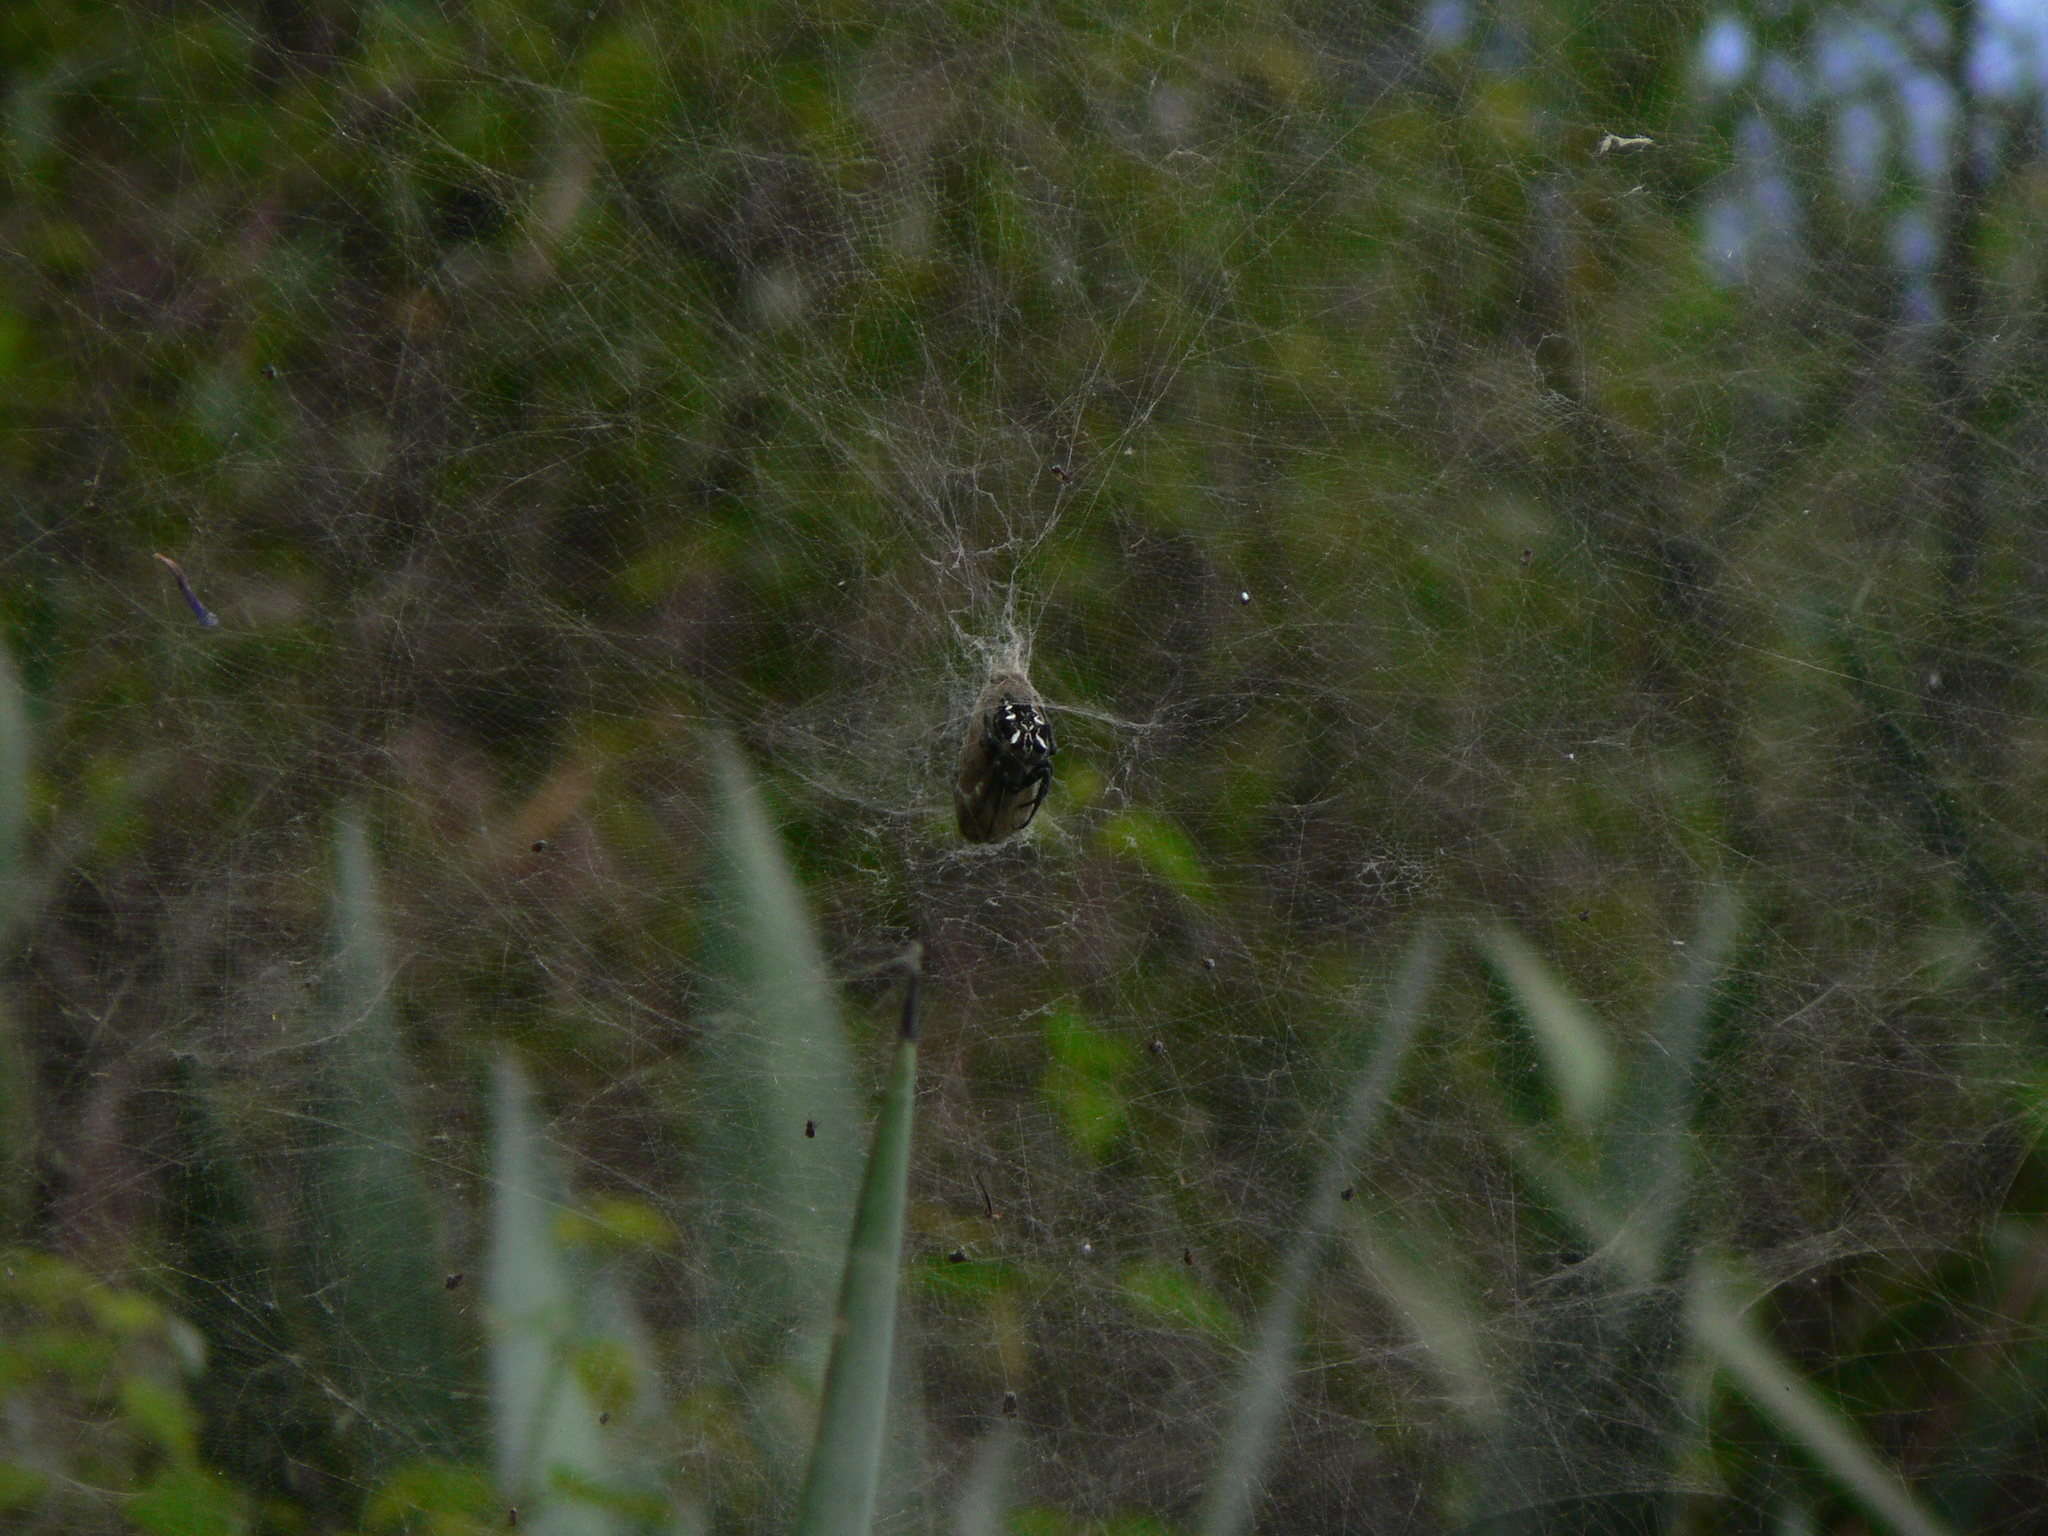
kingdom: Animalia
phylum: Arthropoda
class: Arachnida
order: Araneae
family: Araneidae
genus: Cyrtophora
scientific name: Cyrtophora citricola
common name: Orb weavers
